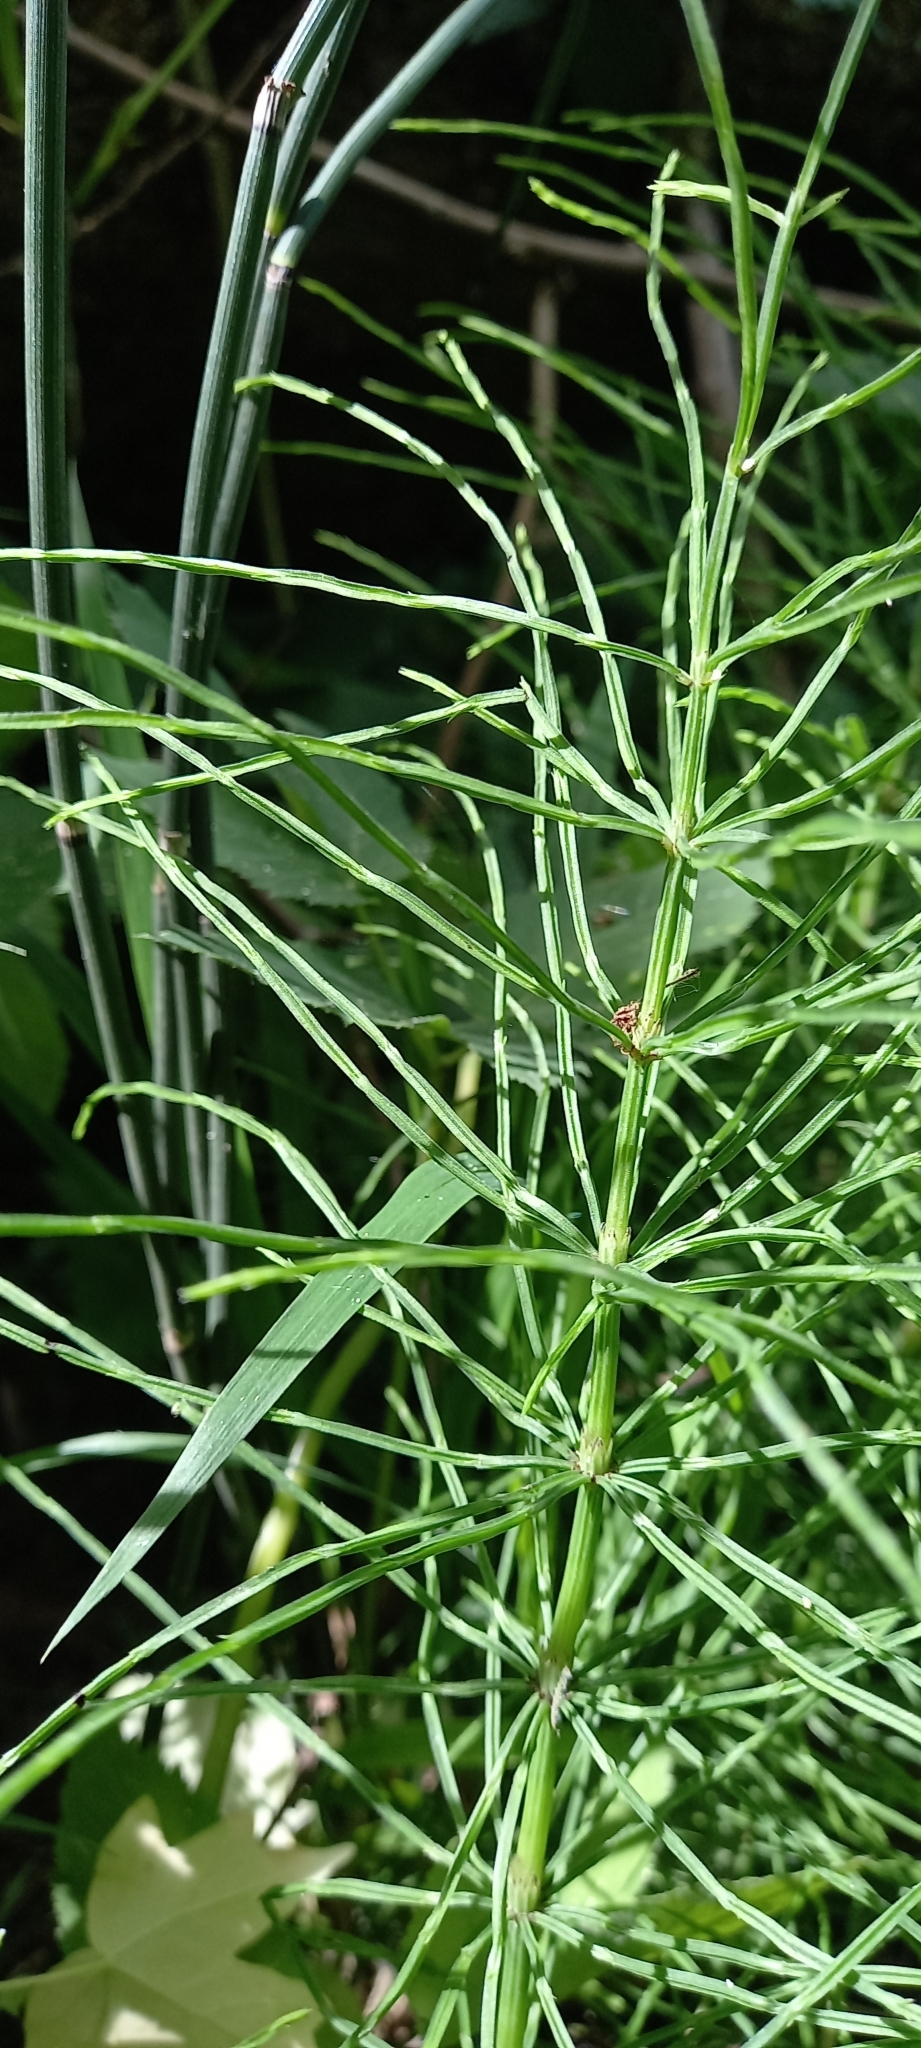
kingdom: Plantae
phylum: Tracheophyta
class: Polypodiopsida
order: Equisetales
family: Equisetaceae
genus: Equisetum
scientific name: Equisetum arvense
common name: Field horsetail
